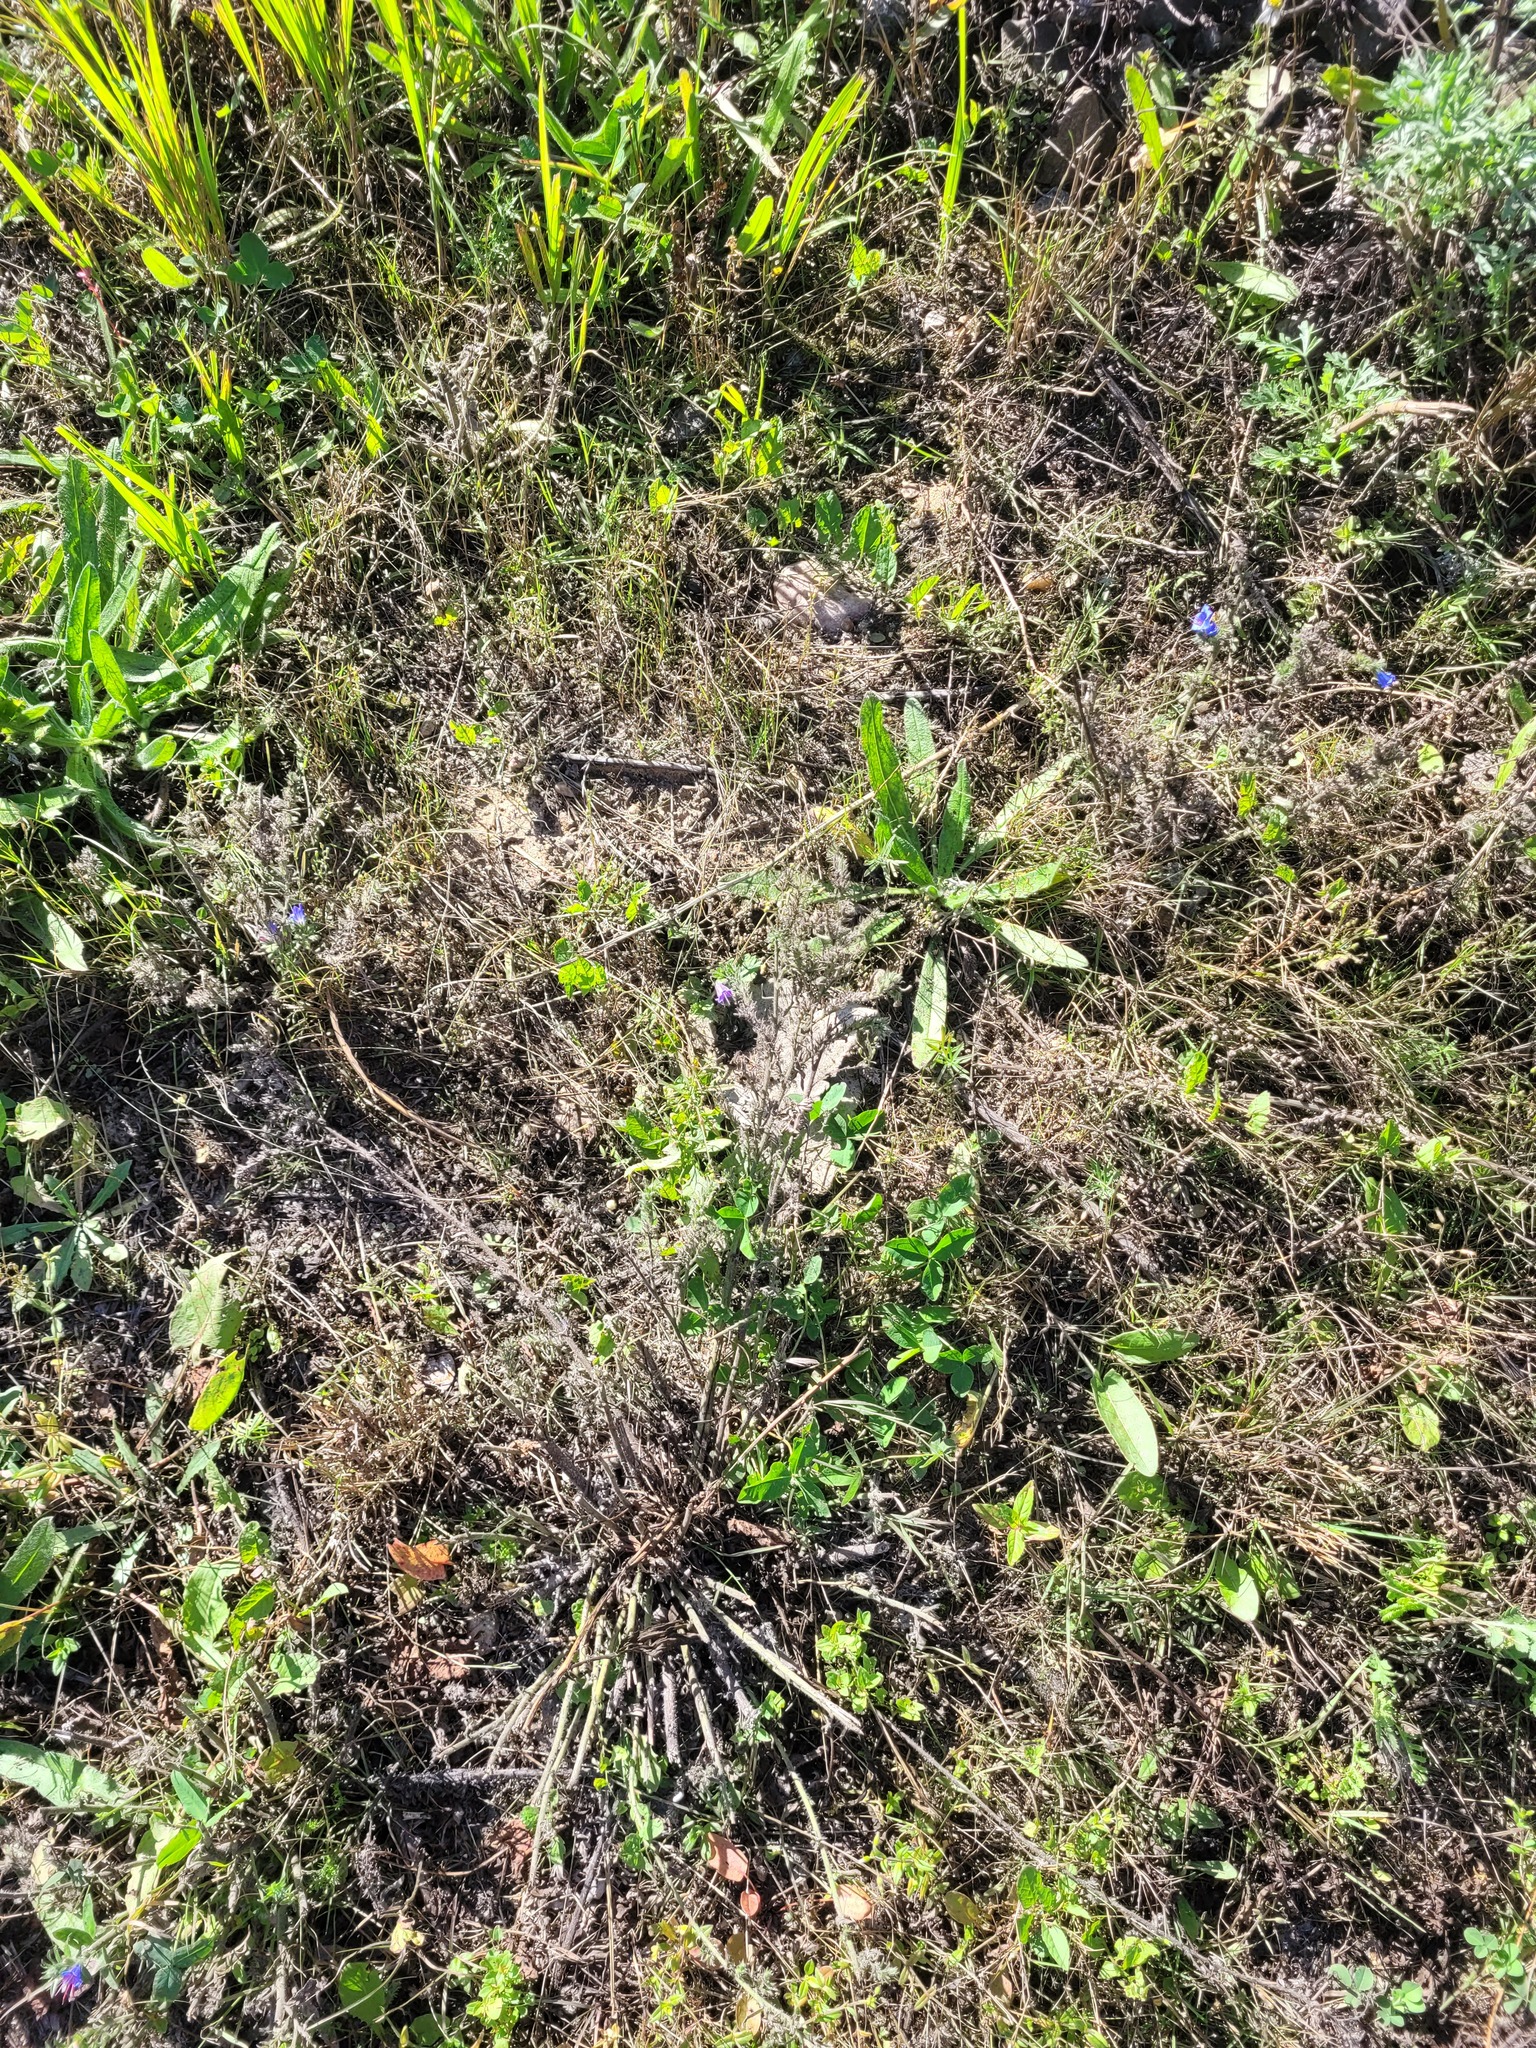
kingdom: Plantae
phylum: Tracheophyta
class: Magnoliopsida
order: Boraginales
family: Boraginaceae
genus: Echium
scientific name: Echium vulgare
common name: Common viper's bugloss
